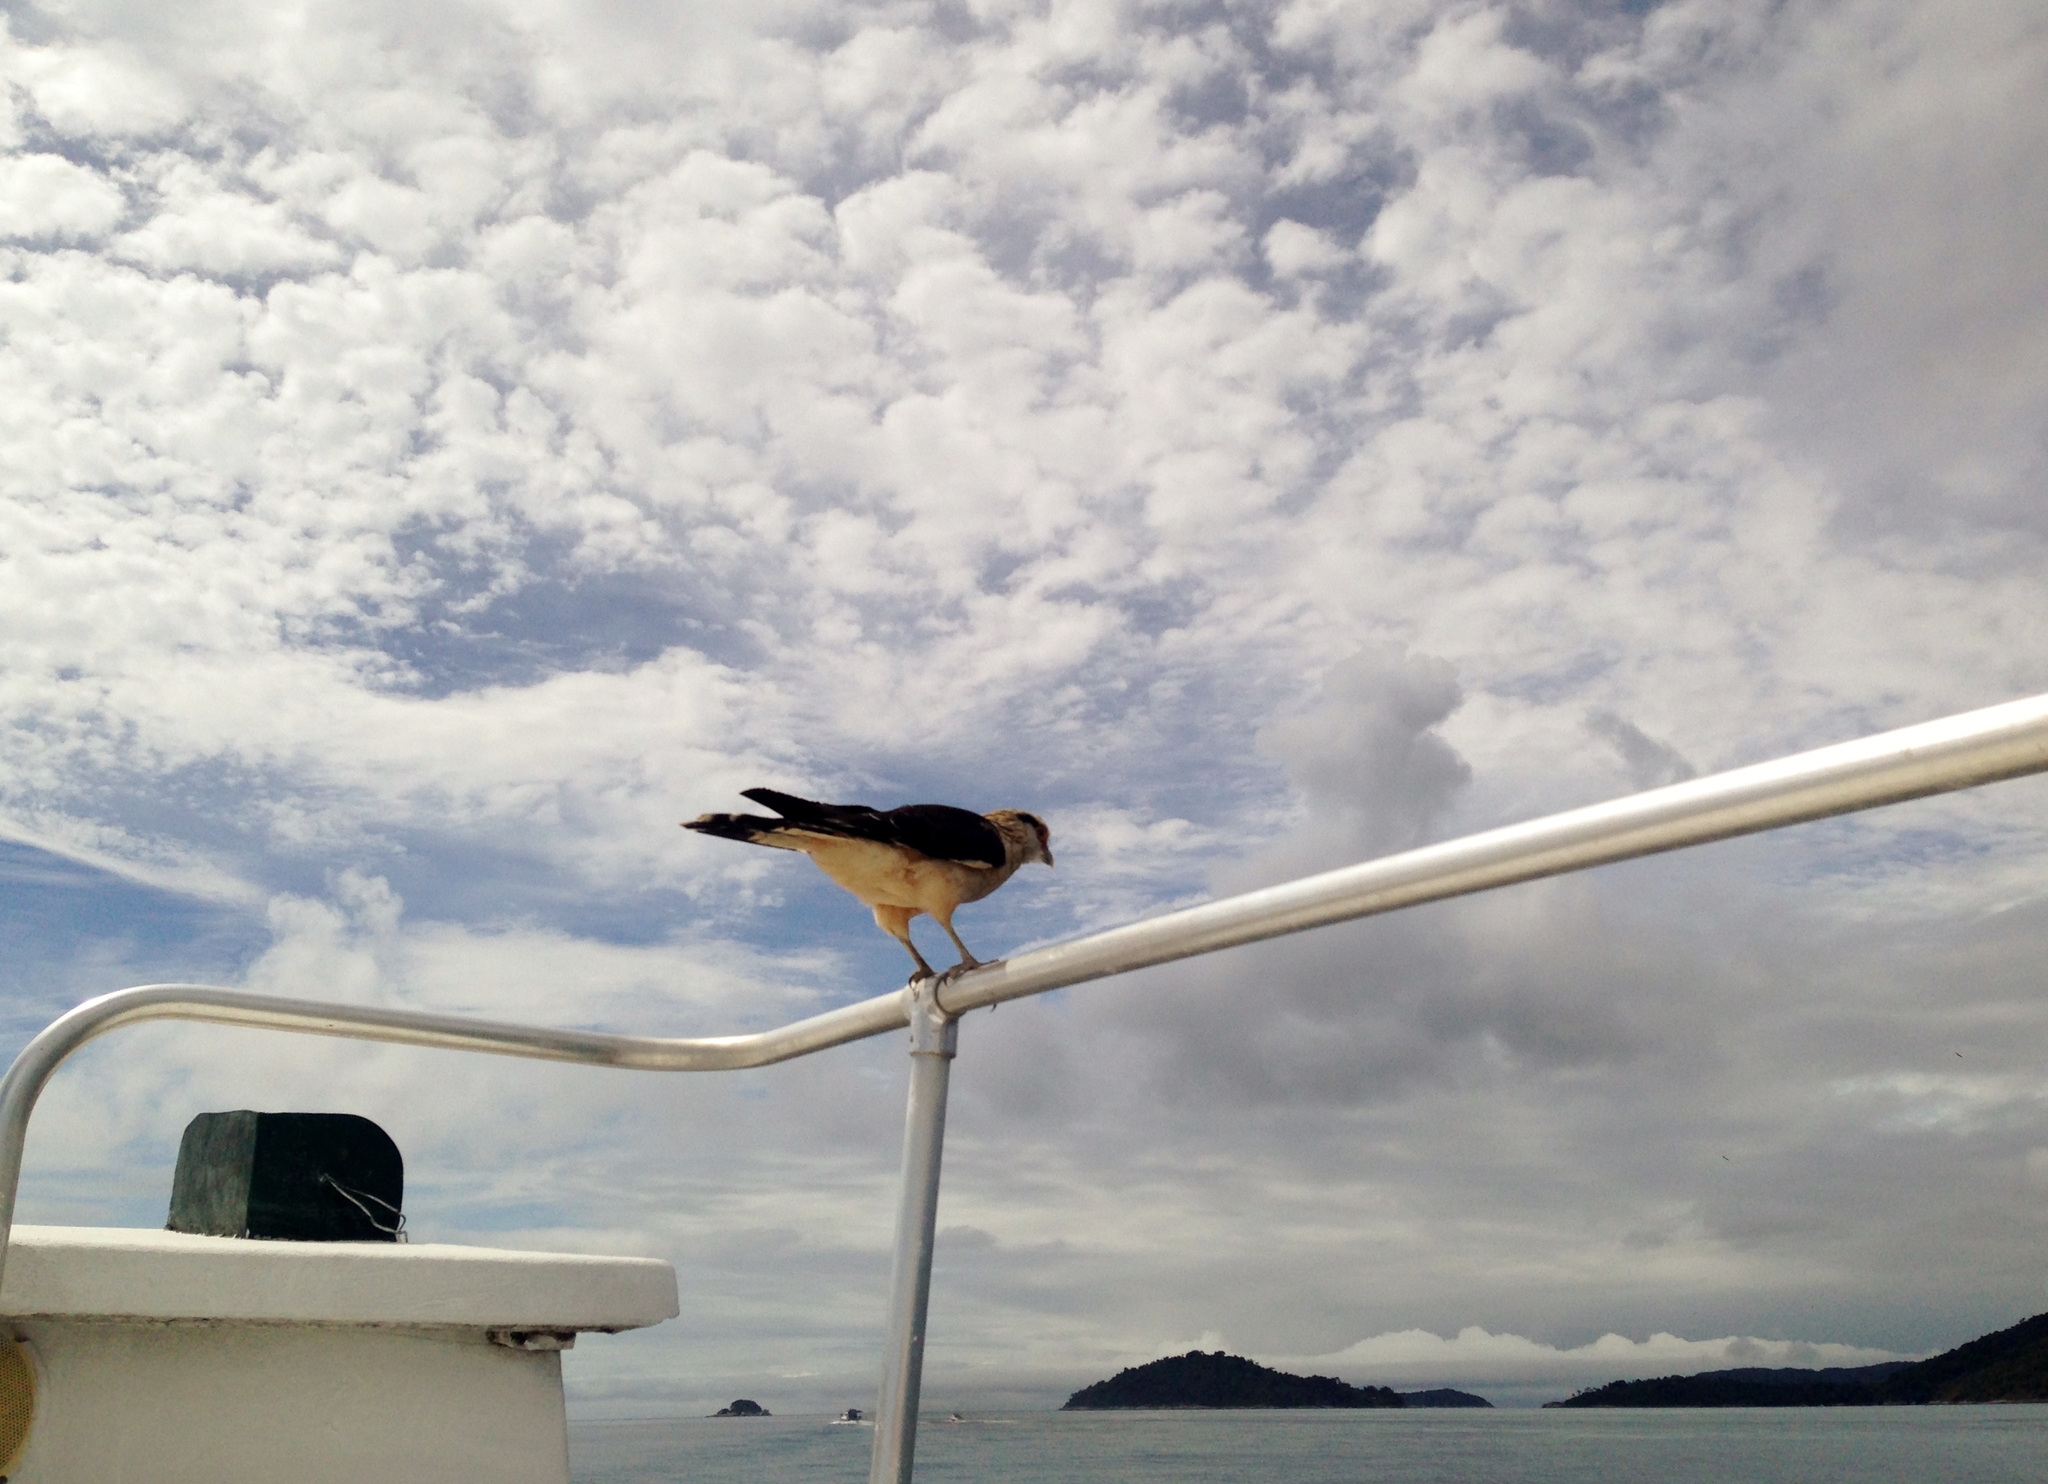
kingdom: Animalia
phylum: Chordata
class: Aves
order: Falconiformes
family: Falconidae
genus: Daptrius
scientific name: Daptrius
